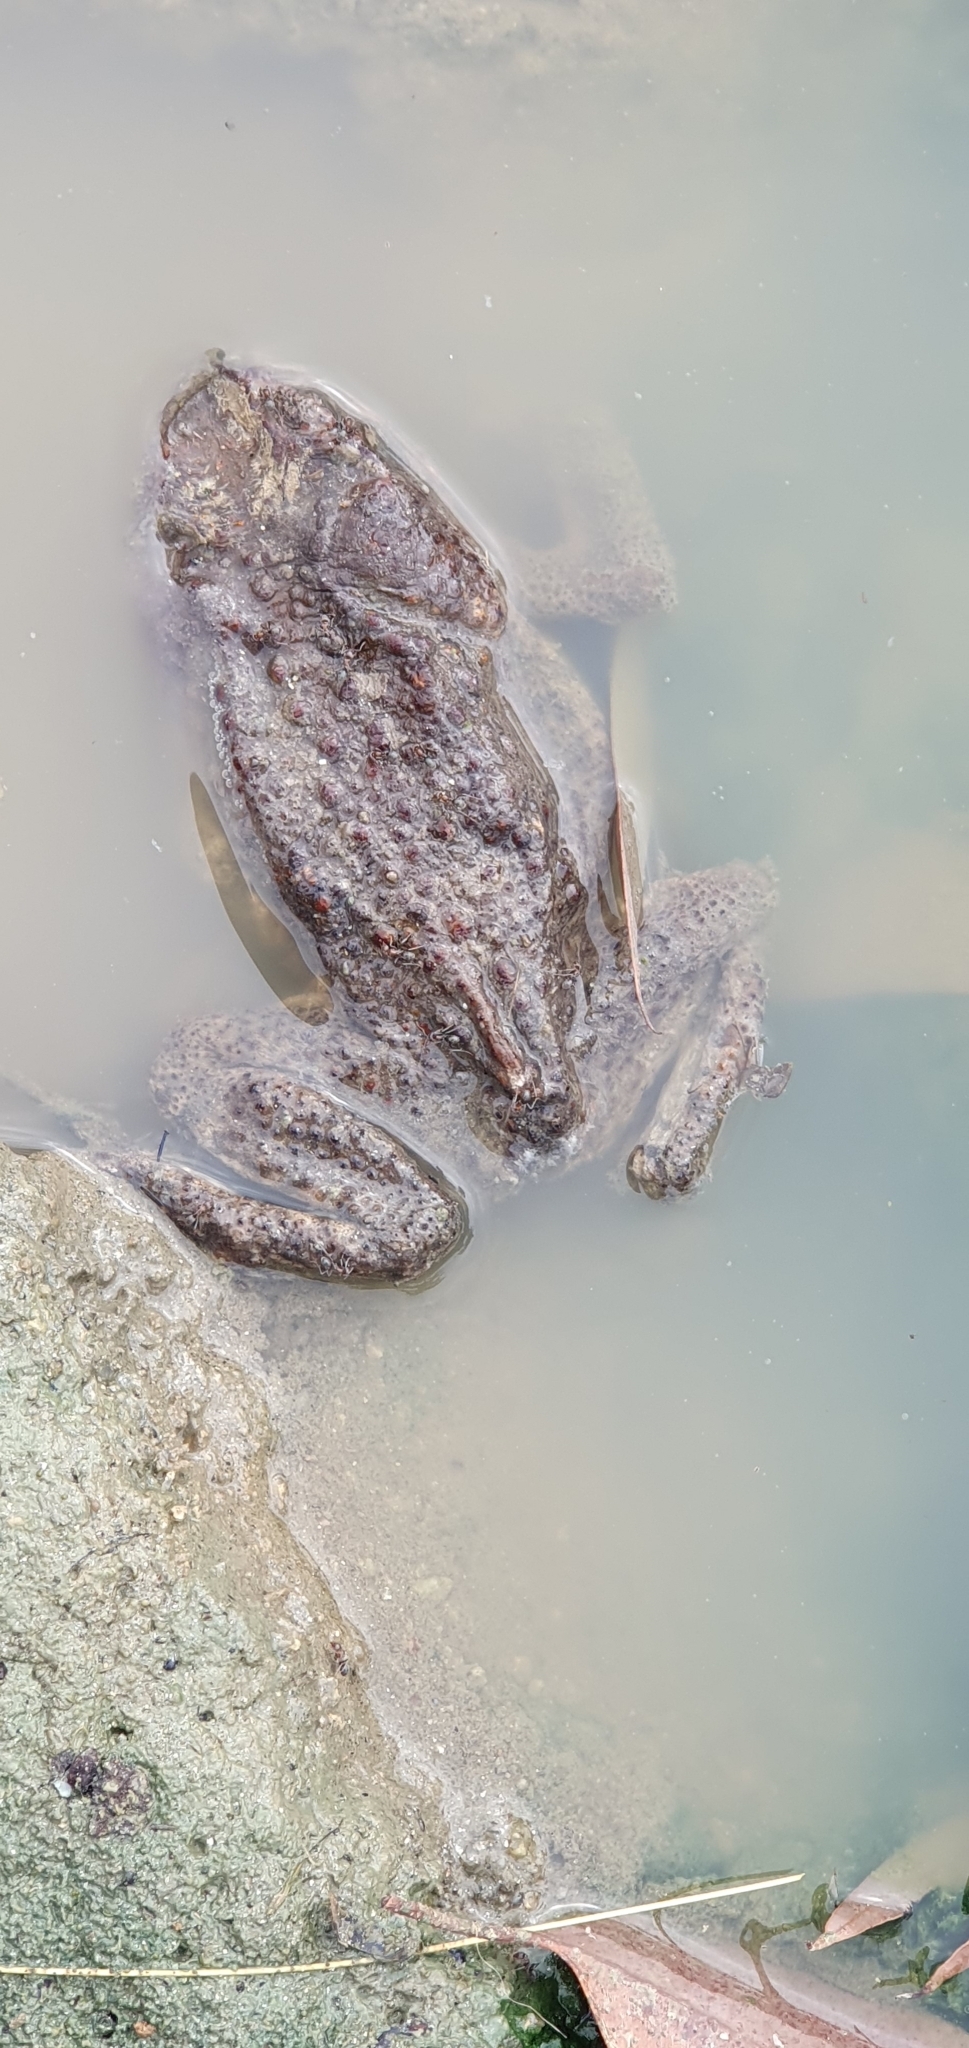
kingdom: Animalia
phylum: Chordata
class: Amphibia
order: Anura
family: Bufonidae
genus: Rhinella
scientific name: Rhinella marina
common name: Cane toad
